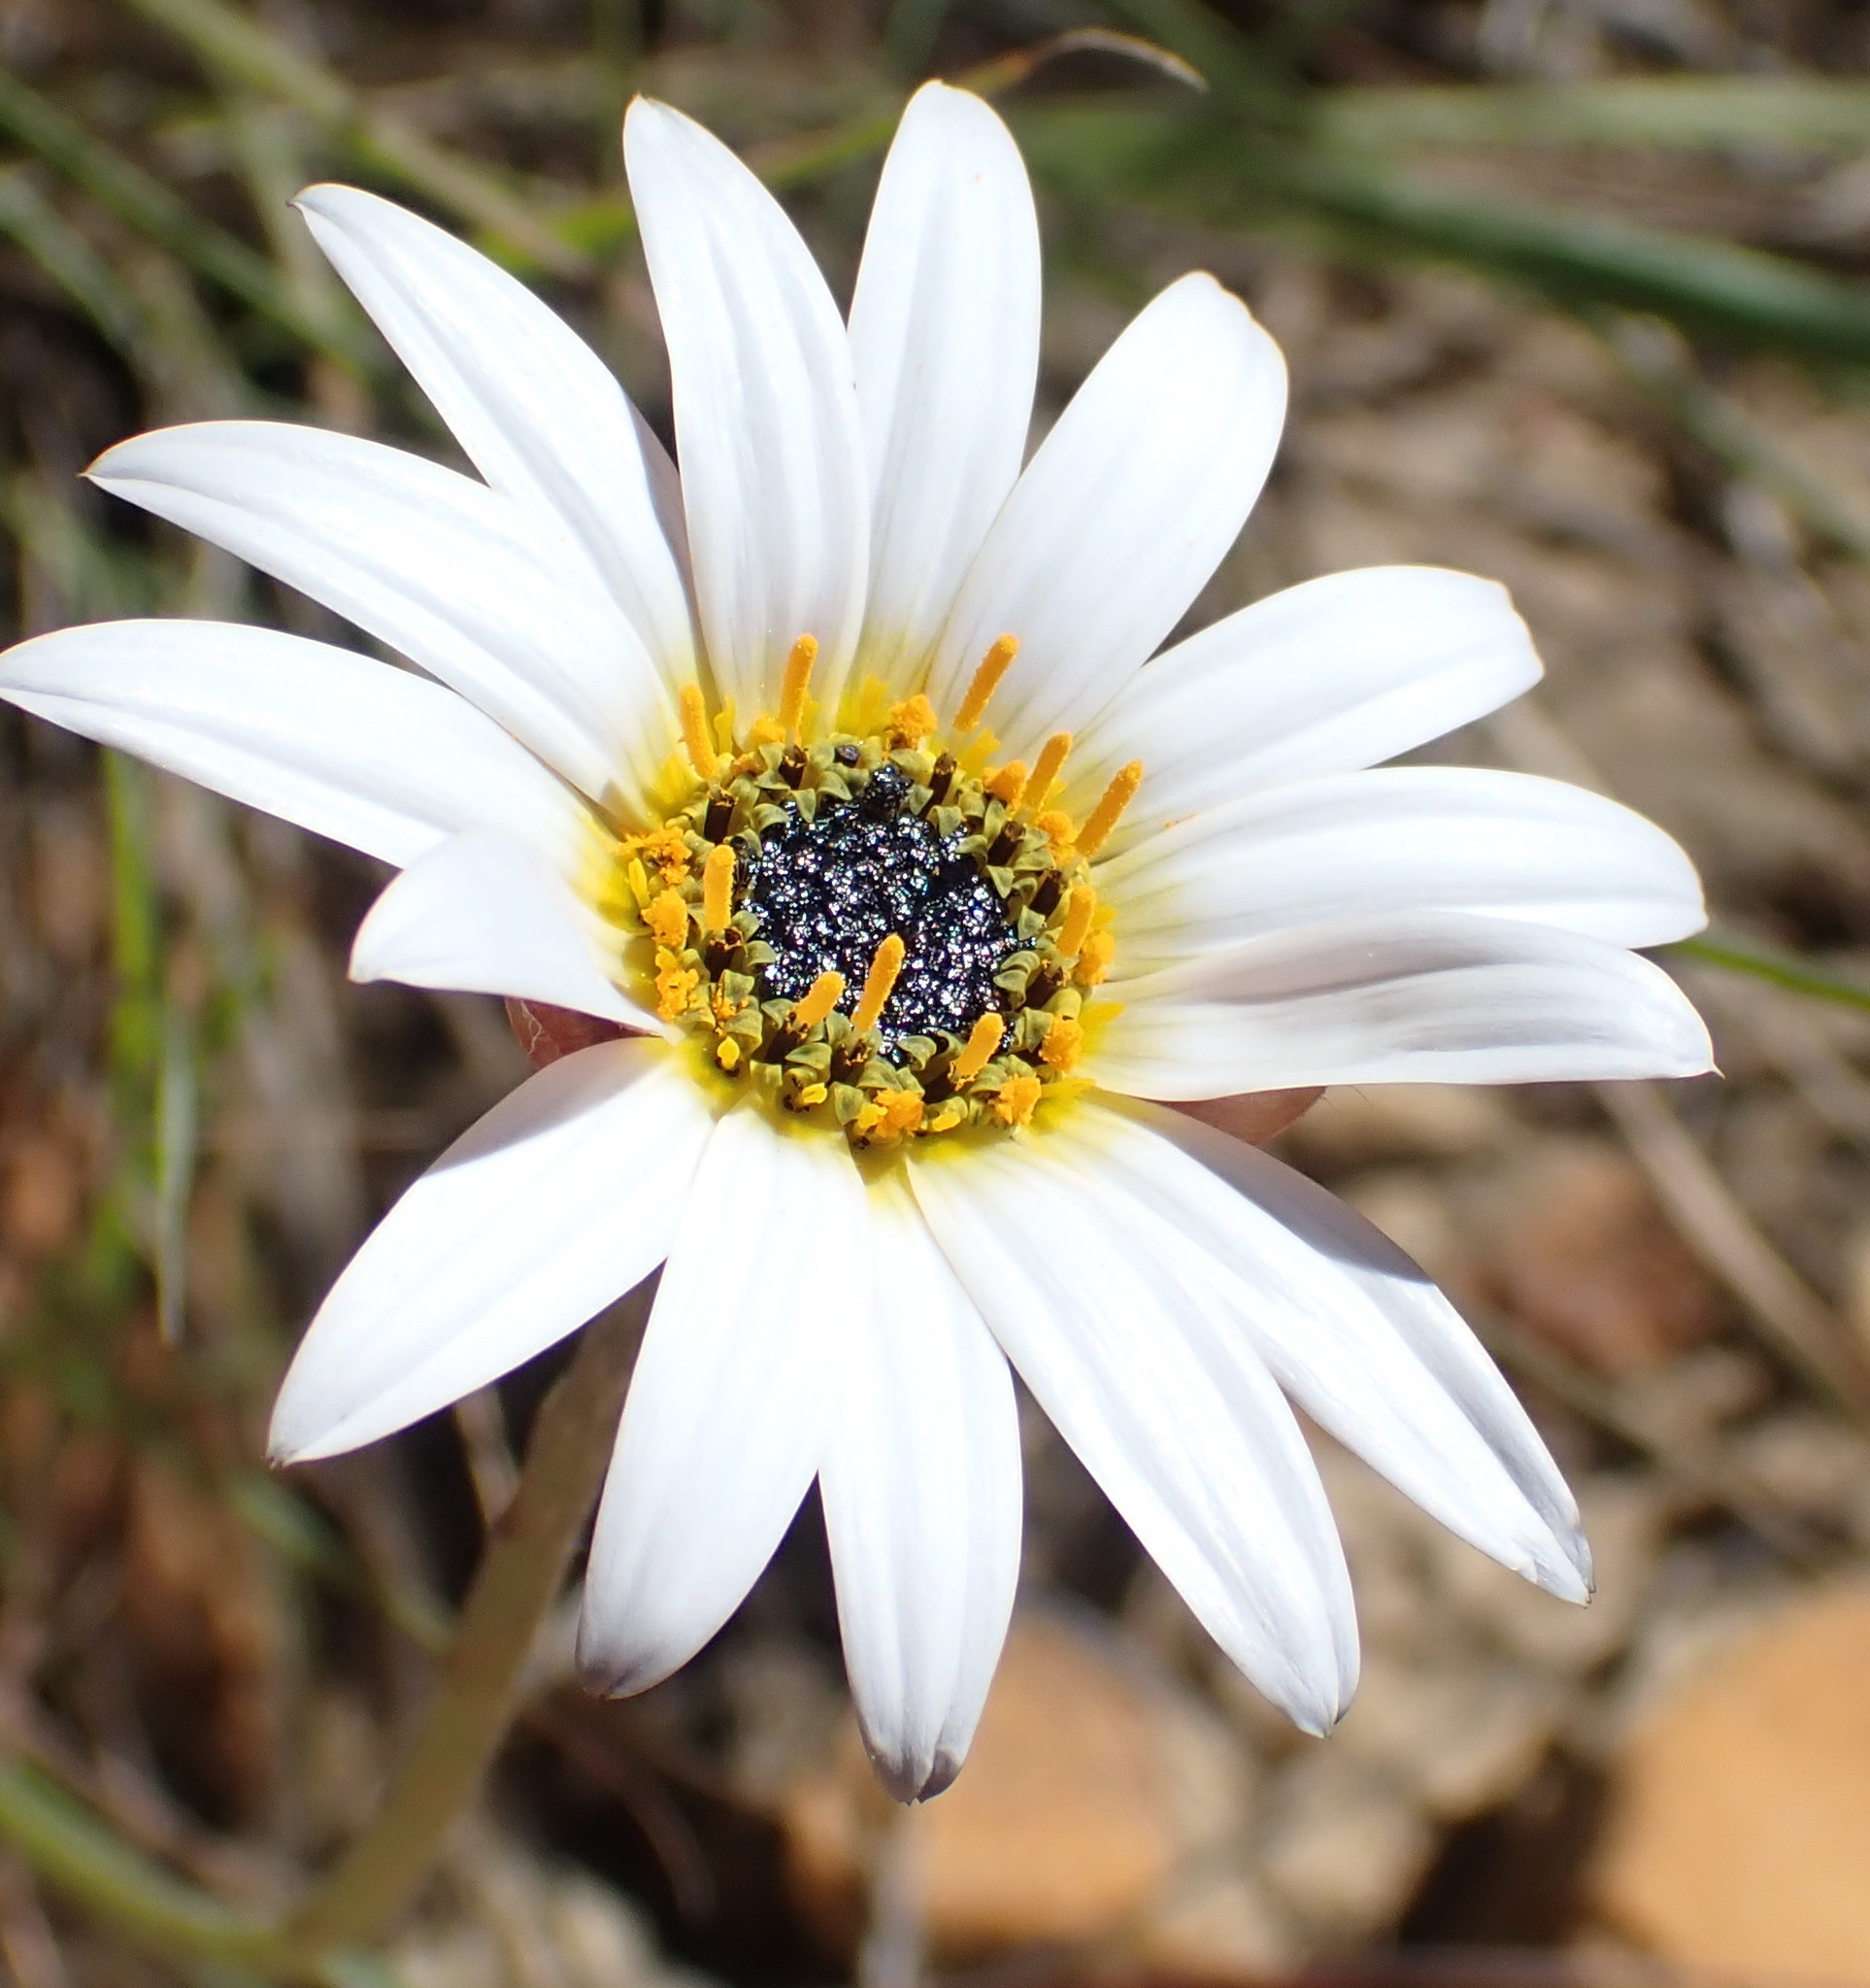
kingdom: Plantae
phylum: Tracheophyta
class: Magnoliopsida
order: Asterales
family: Asteraceae
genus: Arctotis
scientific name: Arctotis lanceolata
